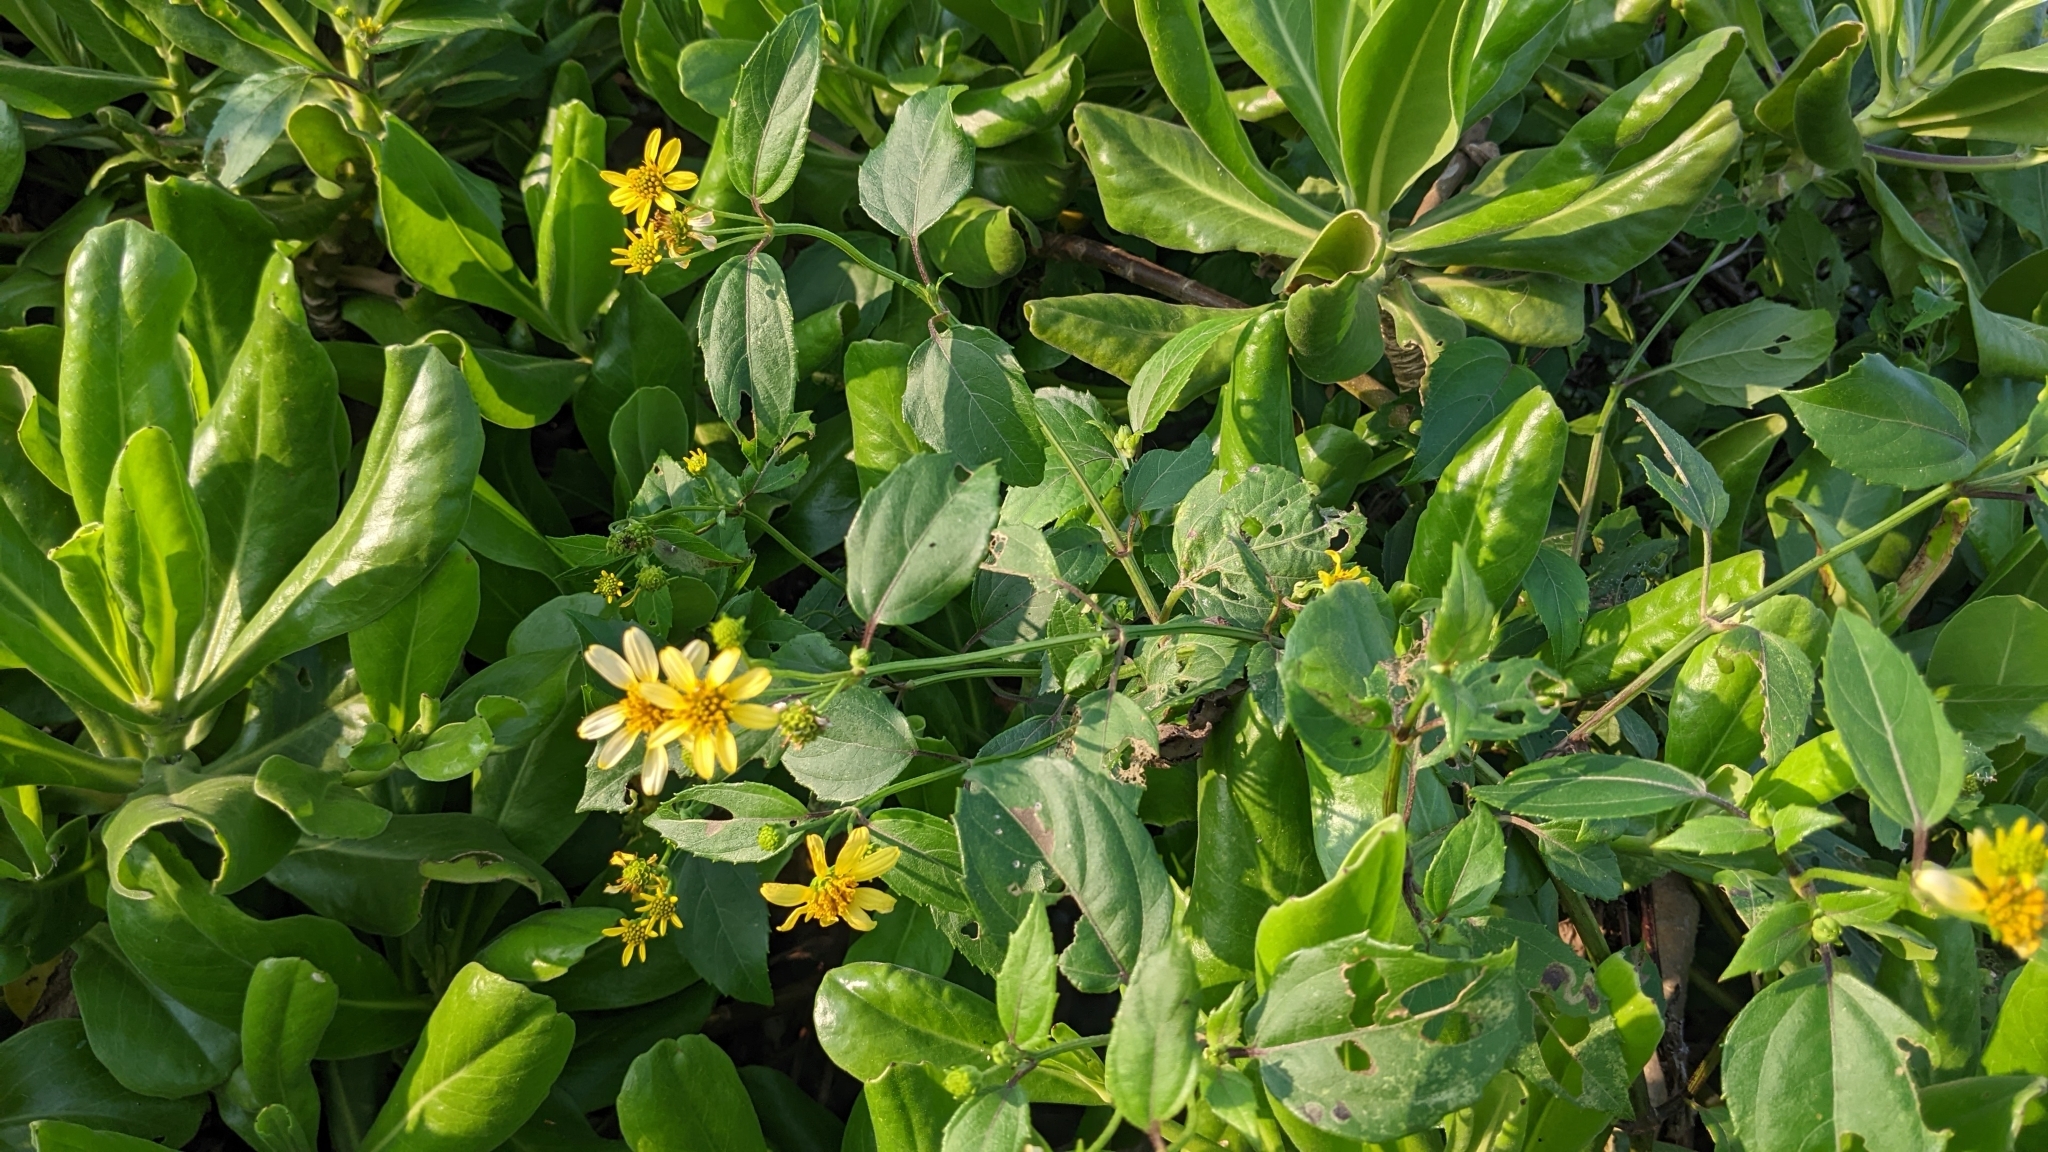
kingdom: Plantae
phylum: Tracheophyta
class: Magnoliopsida
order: Asterales
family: Asteraceae
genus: Wollastonia
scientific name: Wollastonia biflora
